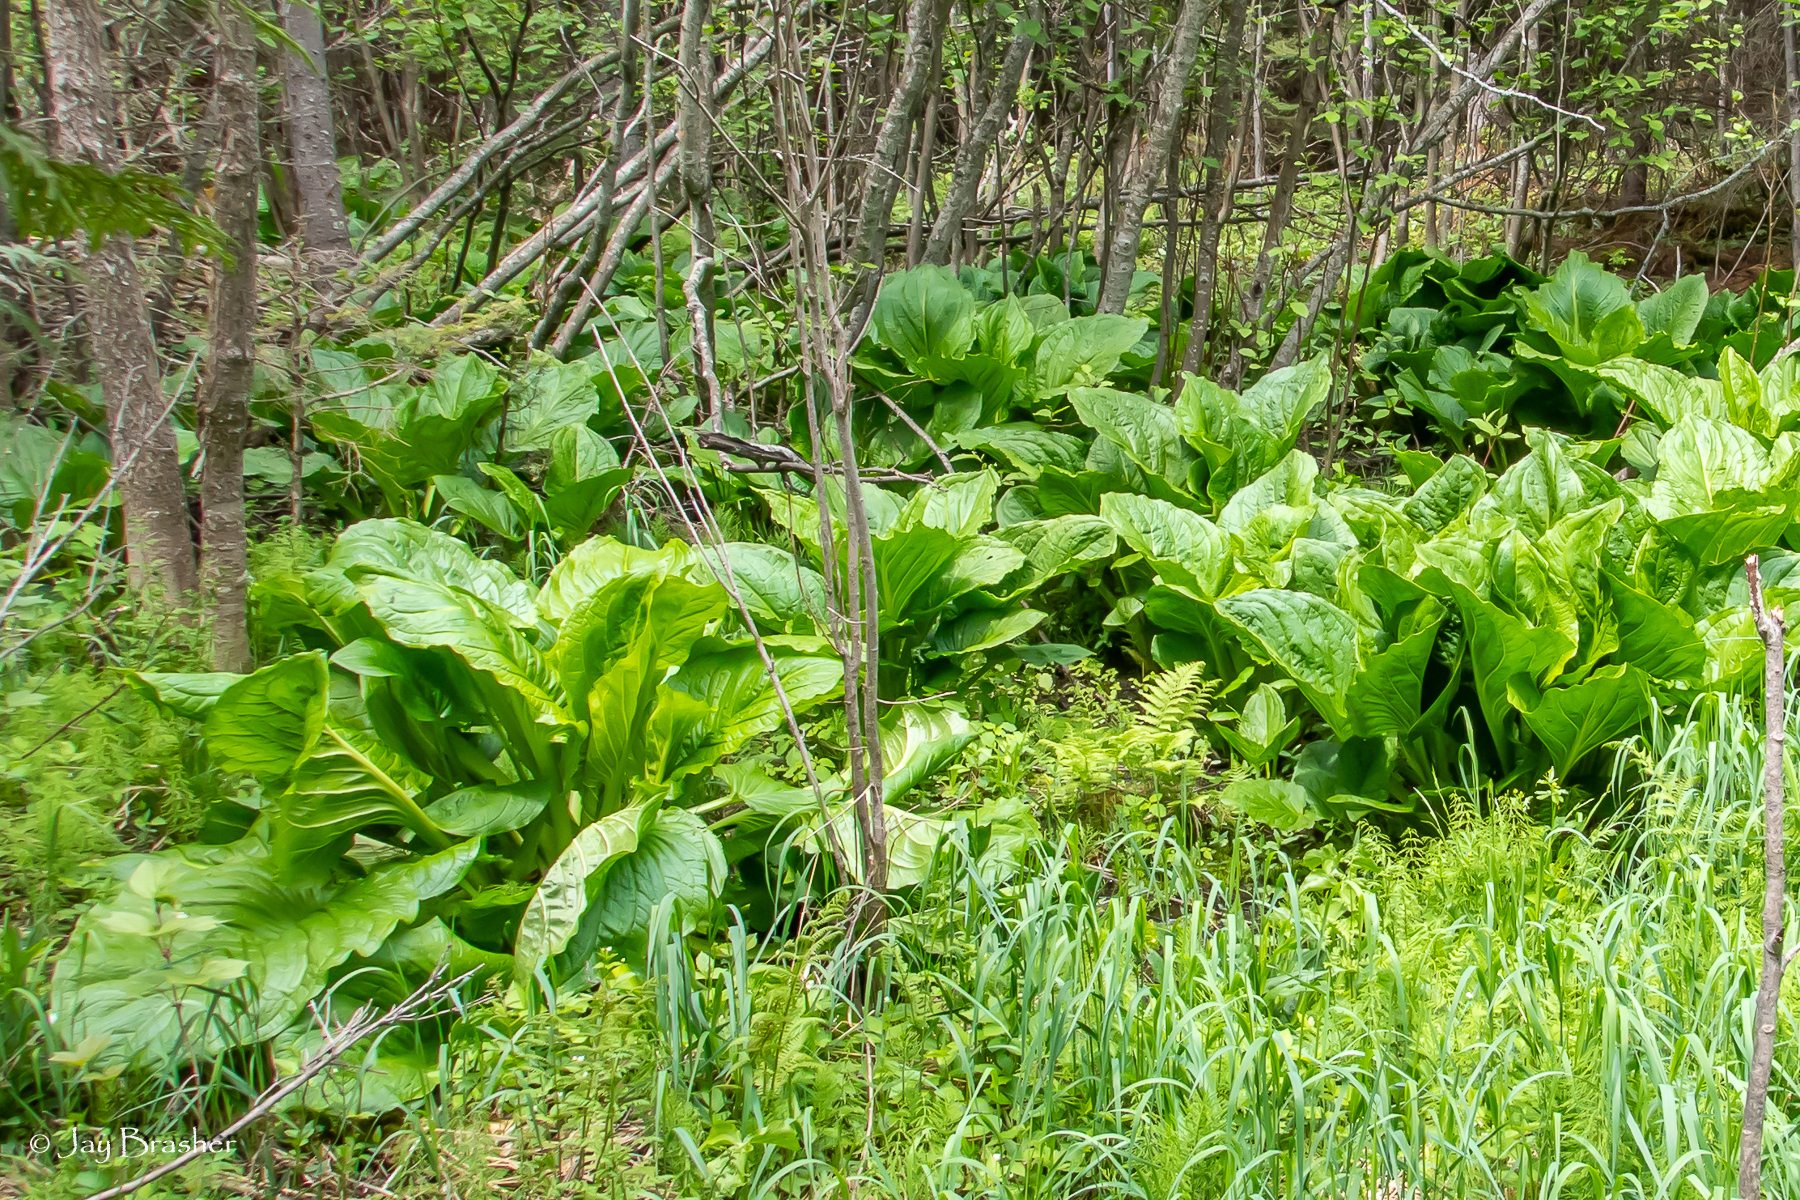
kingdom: Plantae
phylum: Tracheophyta
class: Liliopsida
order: Alismatales
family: Araceae
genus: Symplocarpus
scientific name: Symplocarpus foetidus
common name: Eastern skunk cabbage
